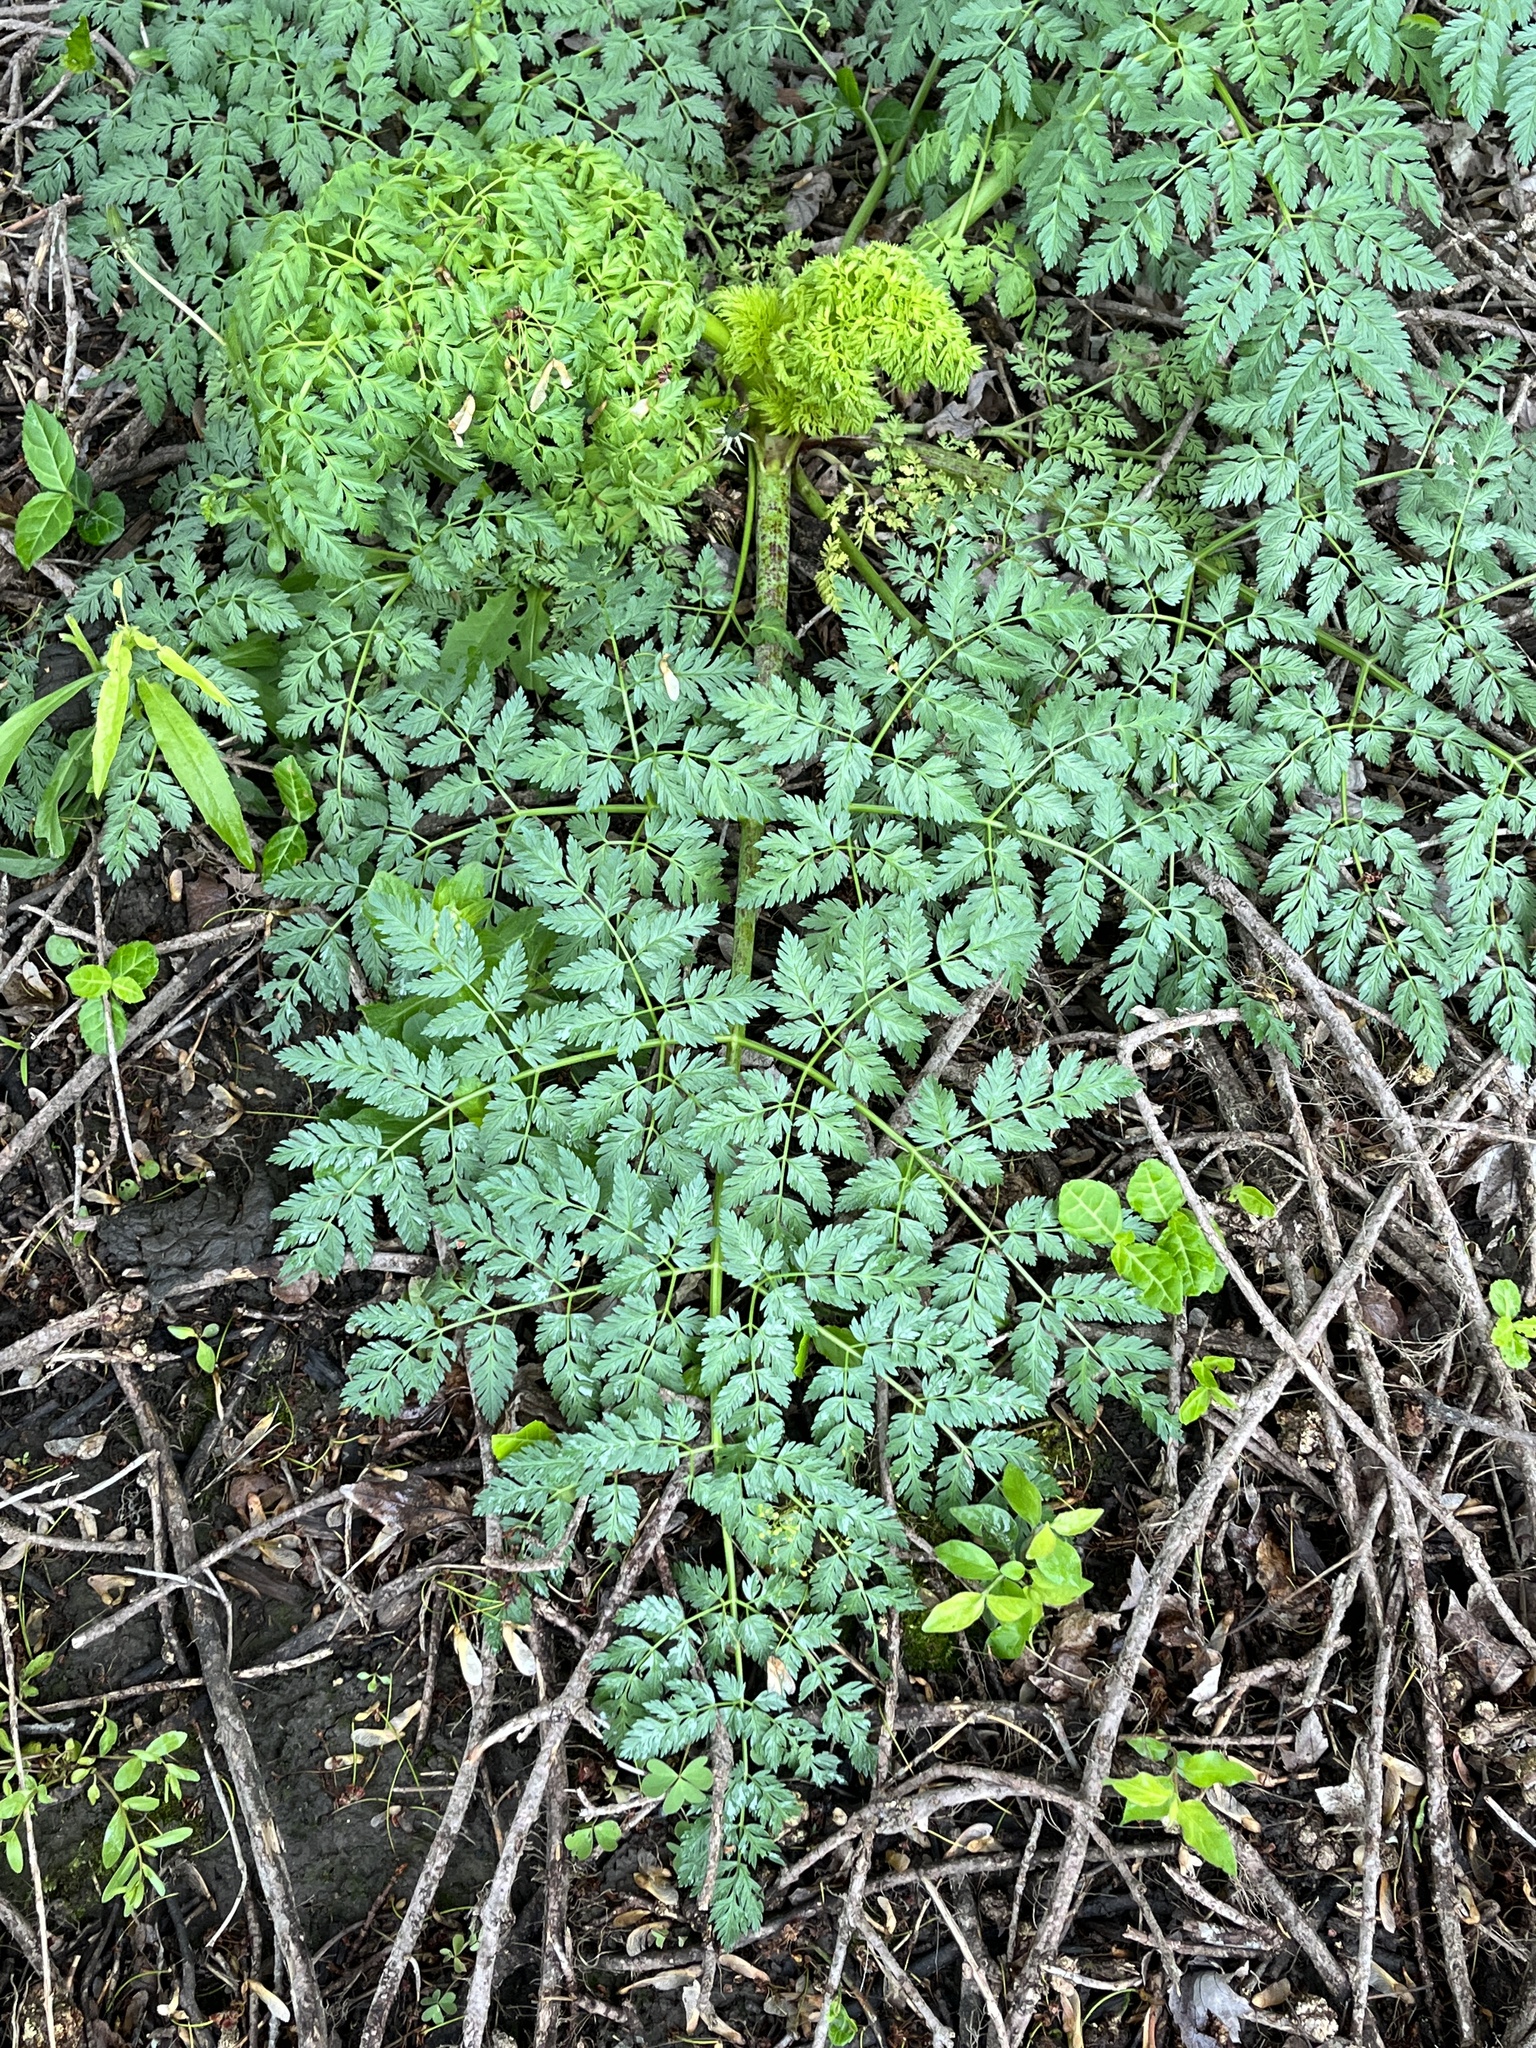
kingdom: Plantae
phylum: Tracheophyta
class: Magnoliopsida
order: Apiales
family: Apiaceae
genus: Conium
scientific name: Conium maculatum
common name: Hemlock
